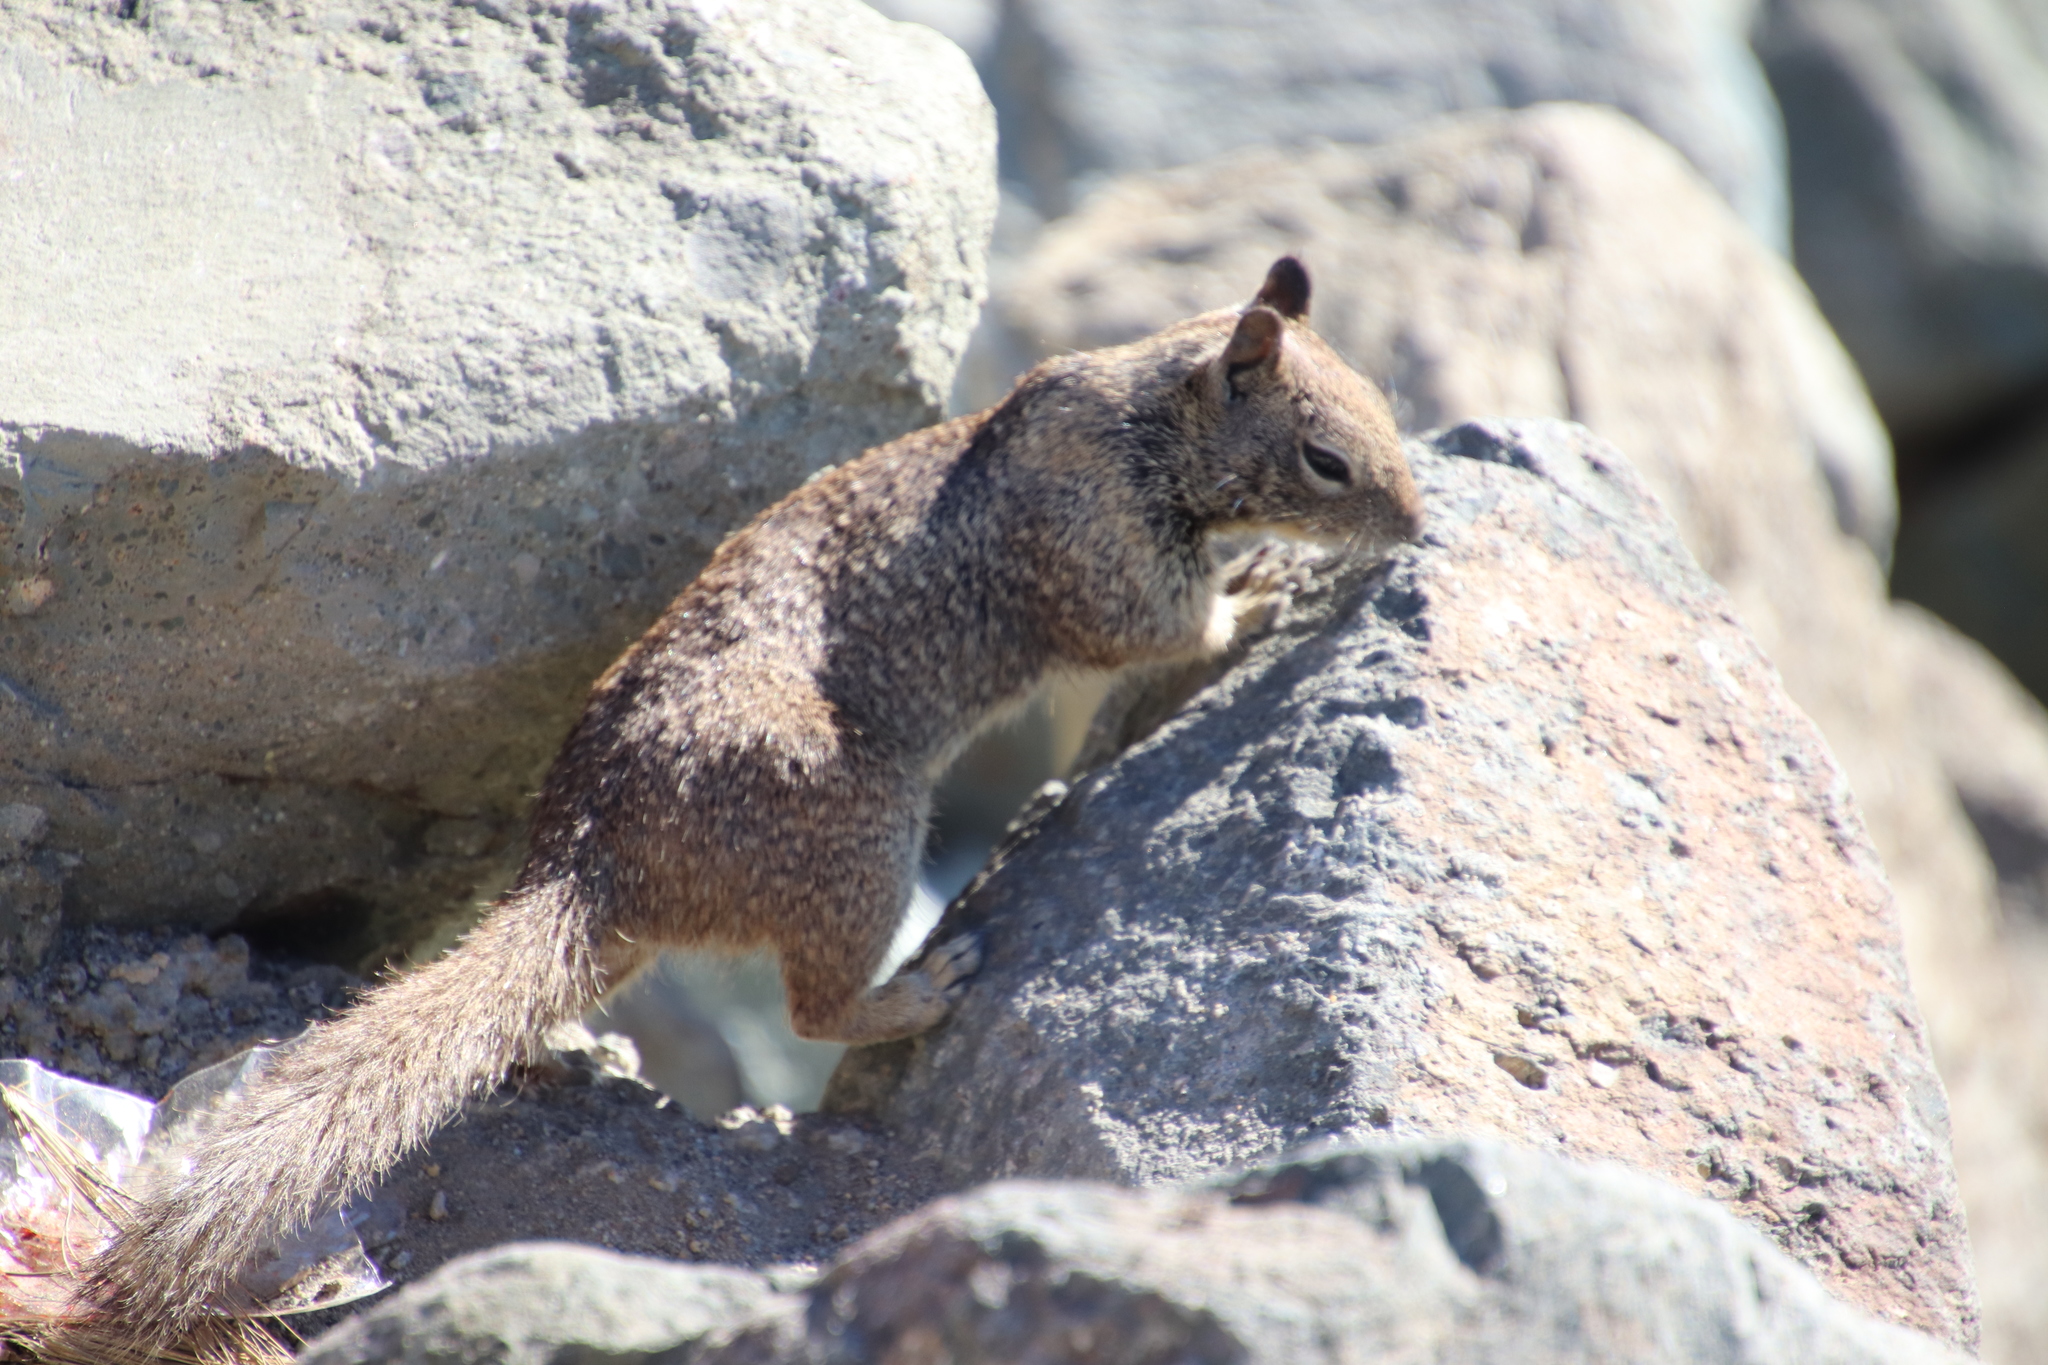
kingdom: Animalia
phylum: Chordata
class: Mammalia
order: Rodentia
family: Sciuridae
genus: Otospermophilus
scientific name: Otospermophilus beecheyi
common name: California ground squirrel
